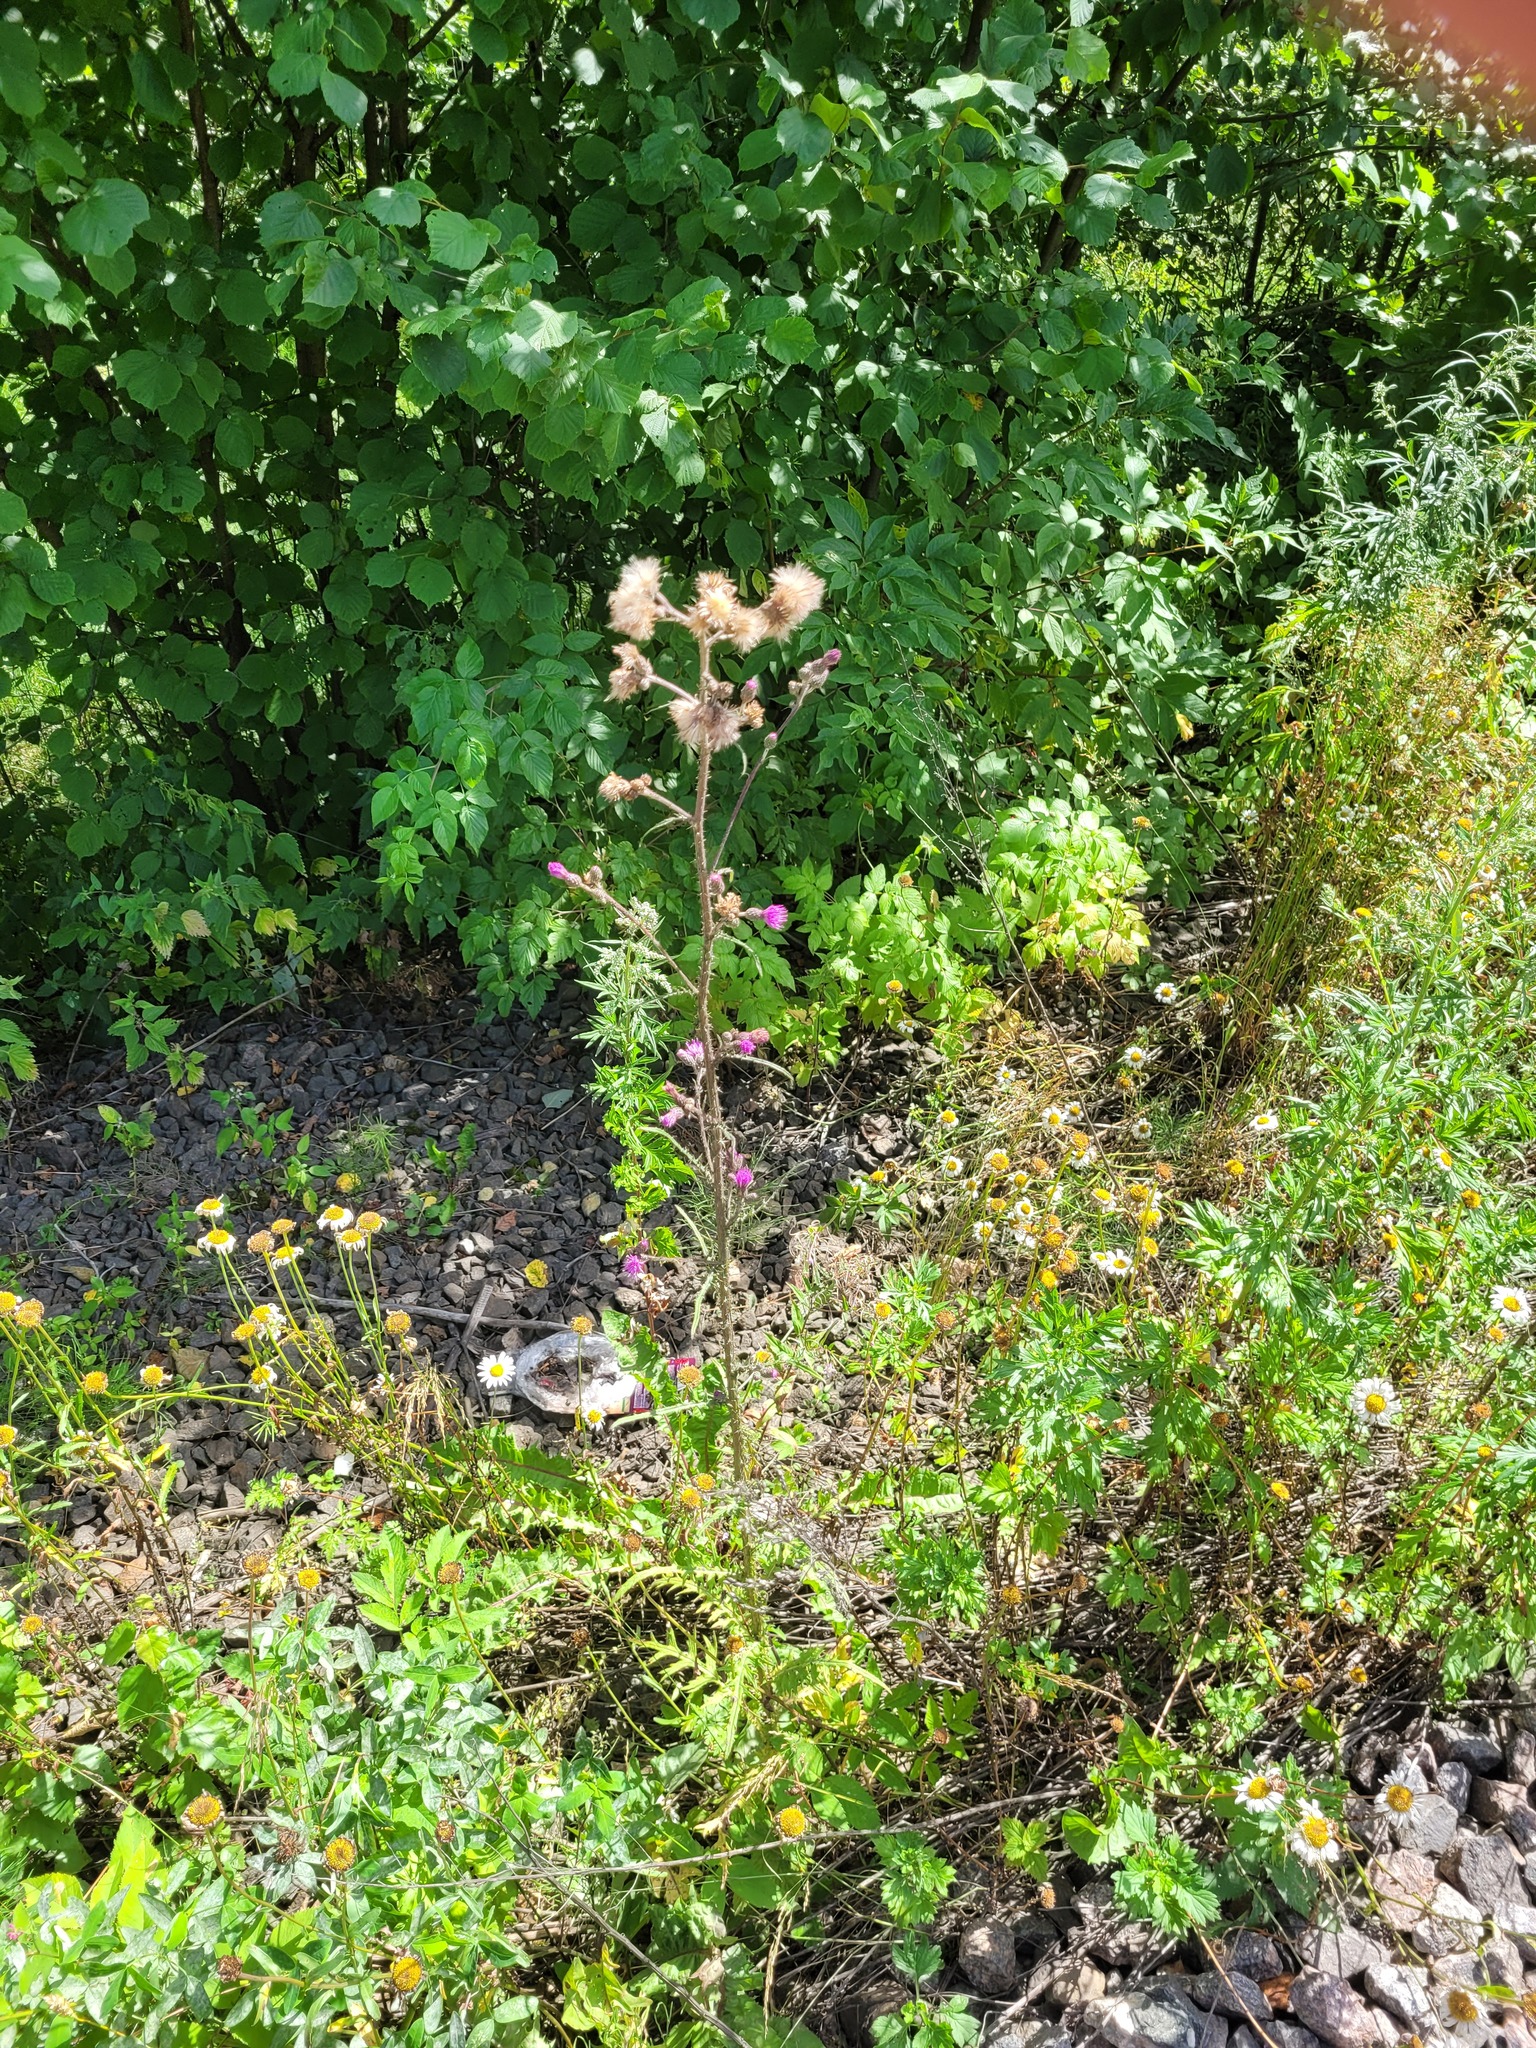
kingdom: Plantae
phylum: Tracheophyta
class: Magnoliopsida
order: Asterales
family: Asteraceae
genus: Cirsium
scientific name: Cirsium palustre
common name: Marsh thistle
